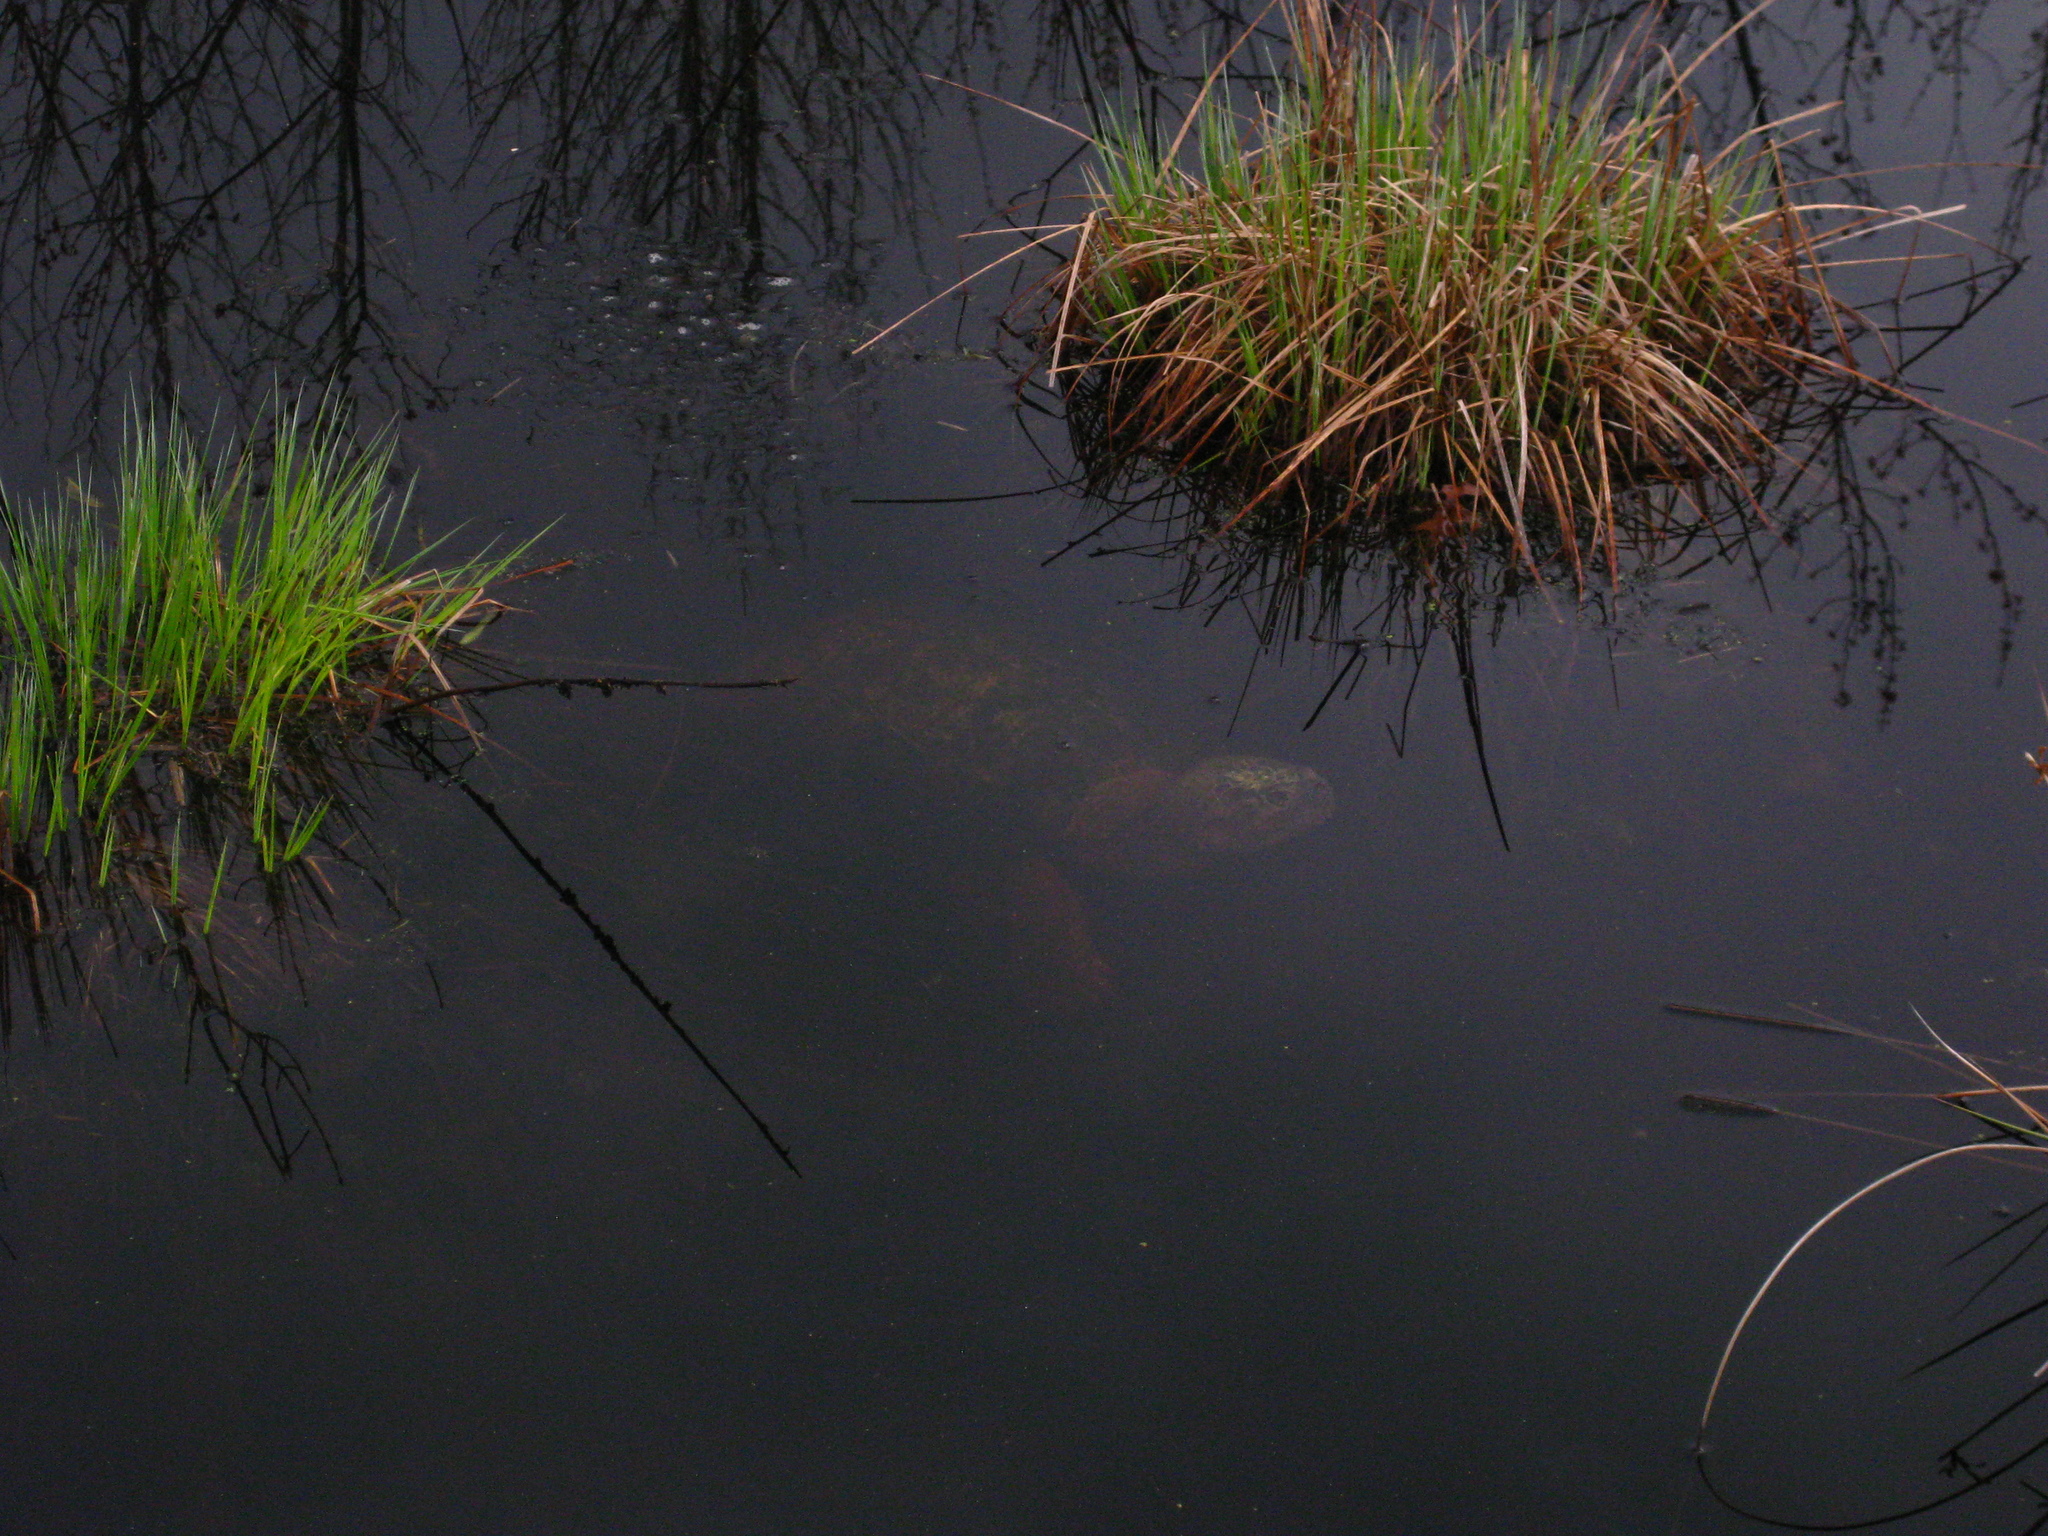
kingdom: Animalia
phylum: Chordata
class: Testudines
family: Chelydridae
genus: Chelydra
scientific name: Chelydra serpentina
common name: Common snapping turtle
